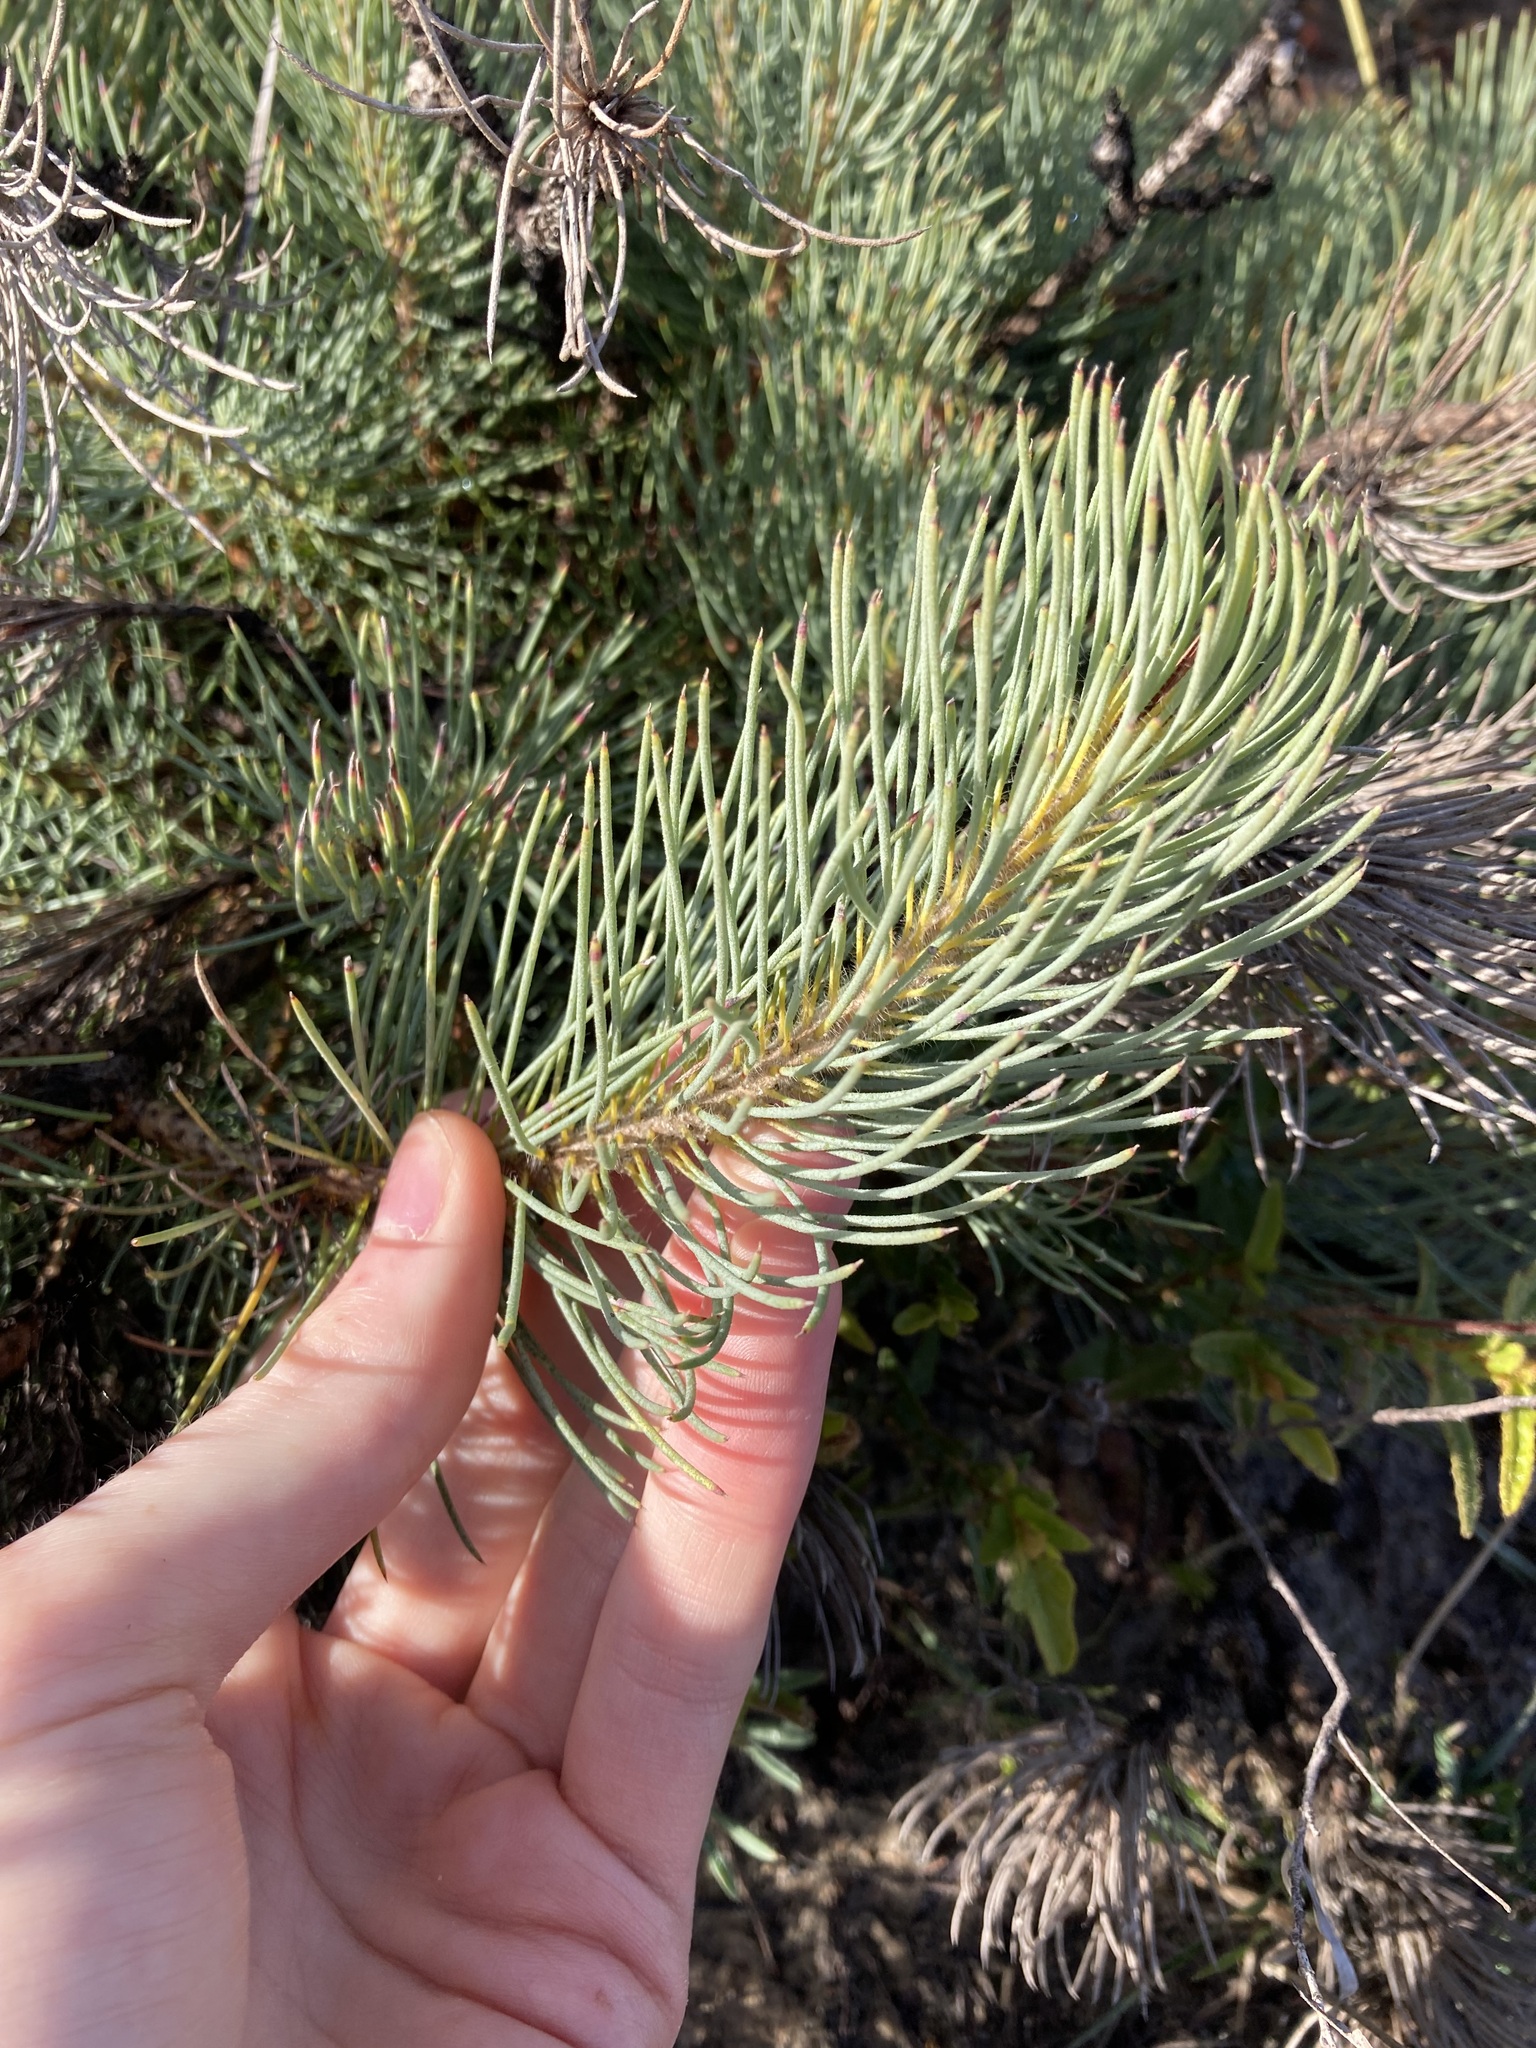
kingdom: Plantae
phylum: Tracheophyta
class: Magnoliopsida
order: Myrtales
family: Myrtaceae
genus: Melaleuca
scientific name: Melaleuca torulosa
